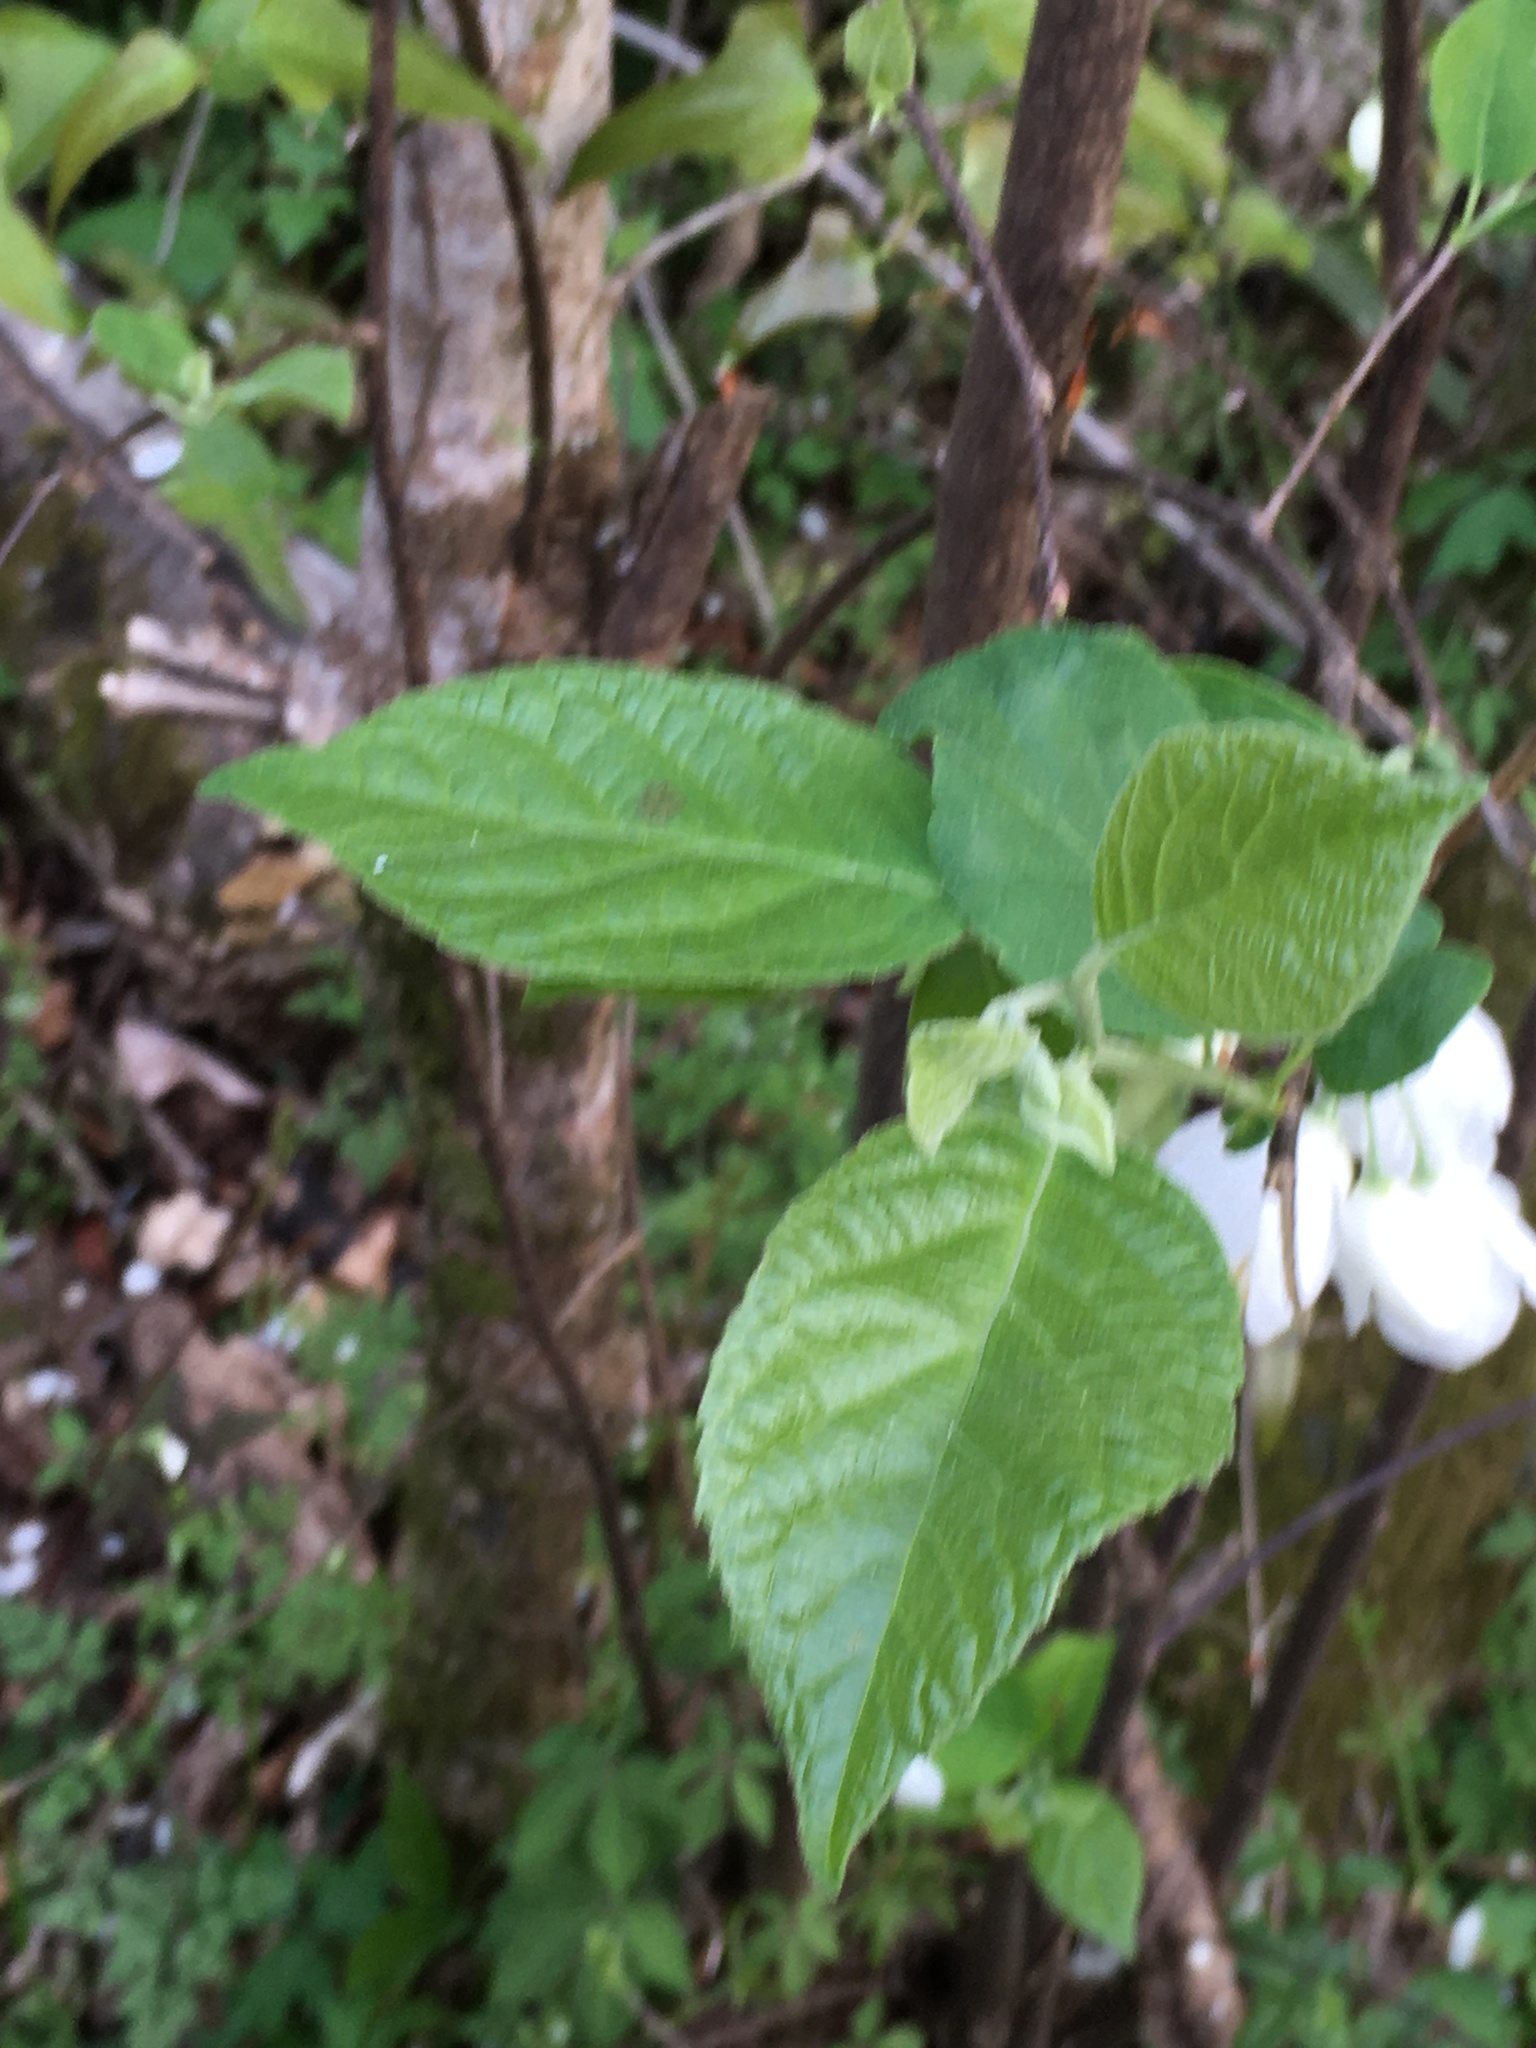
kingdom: Plantae
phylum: Tracheophyta
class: Magnoliopsida
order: Ericales
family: Styracaceae
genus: Halesia
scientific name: Halesia diptera
